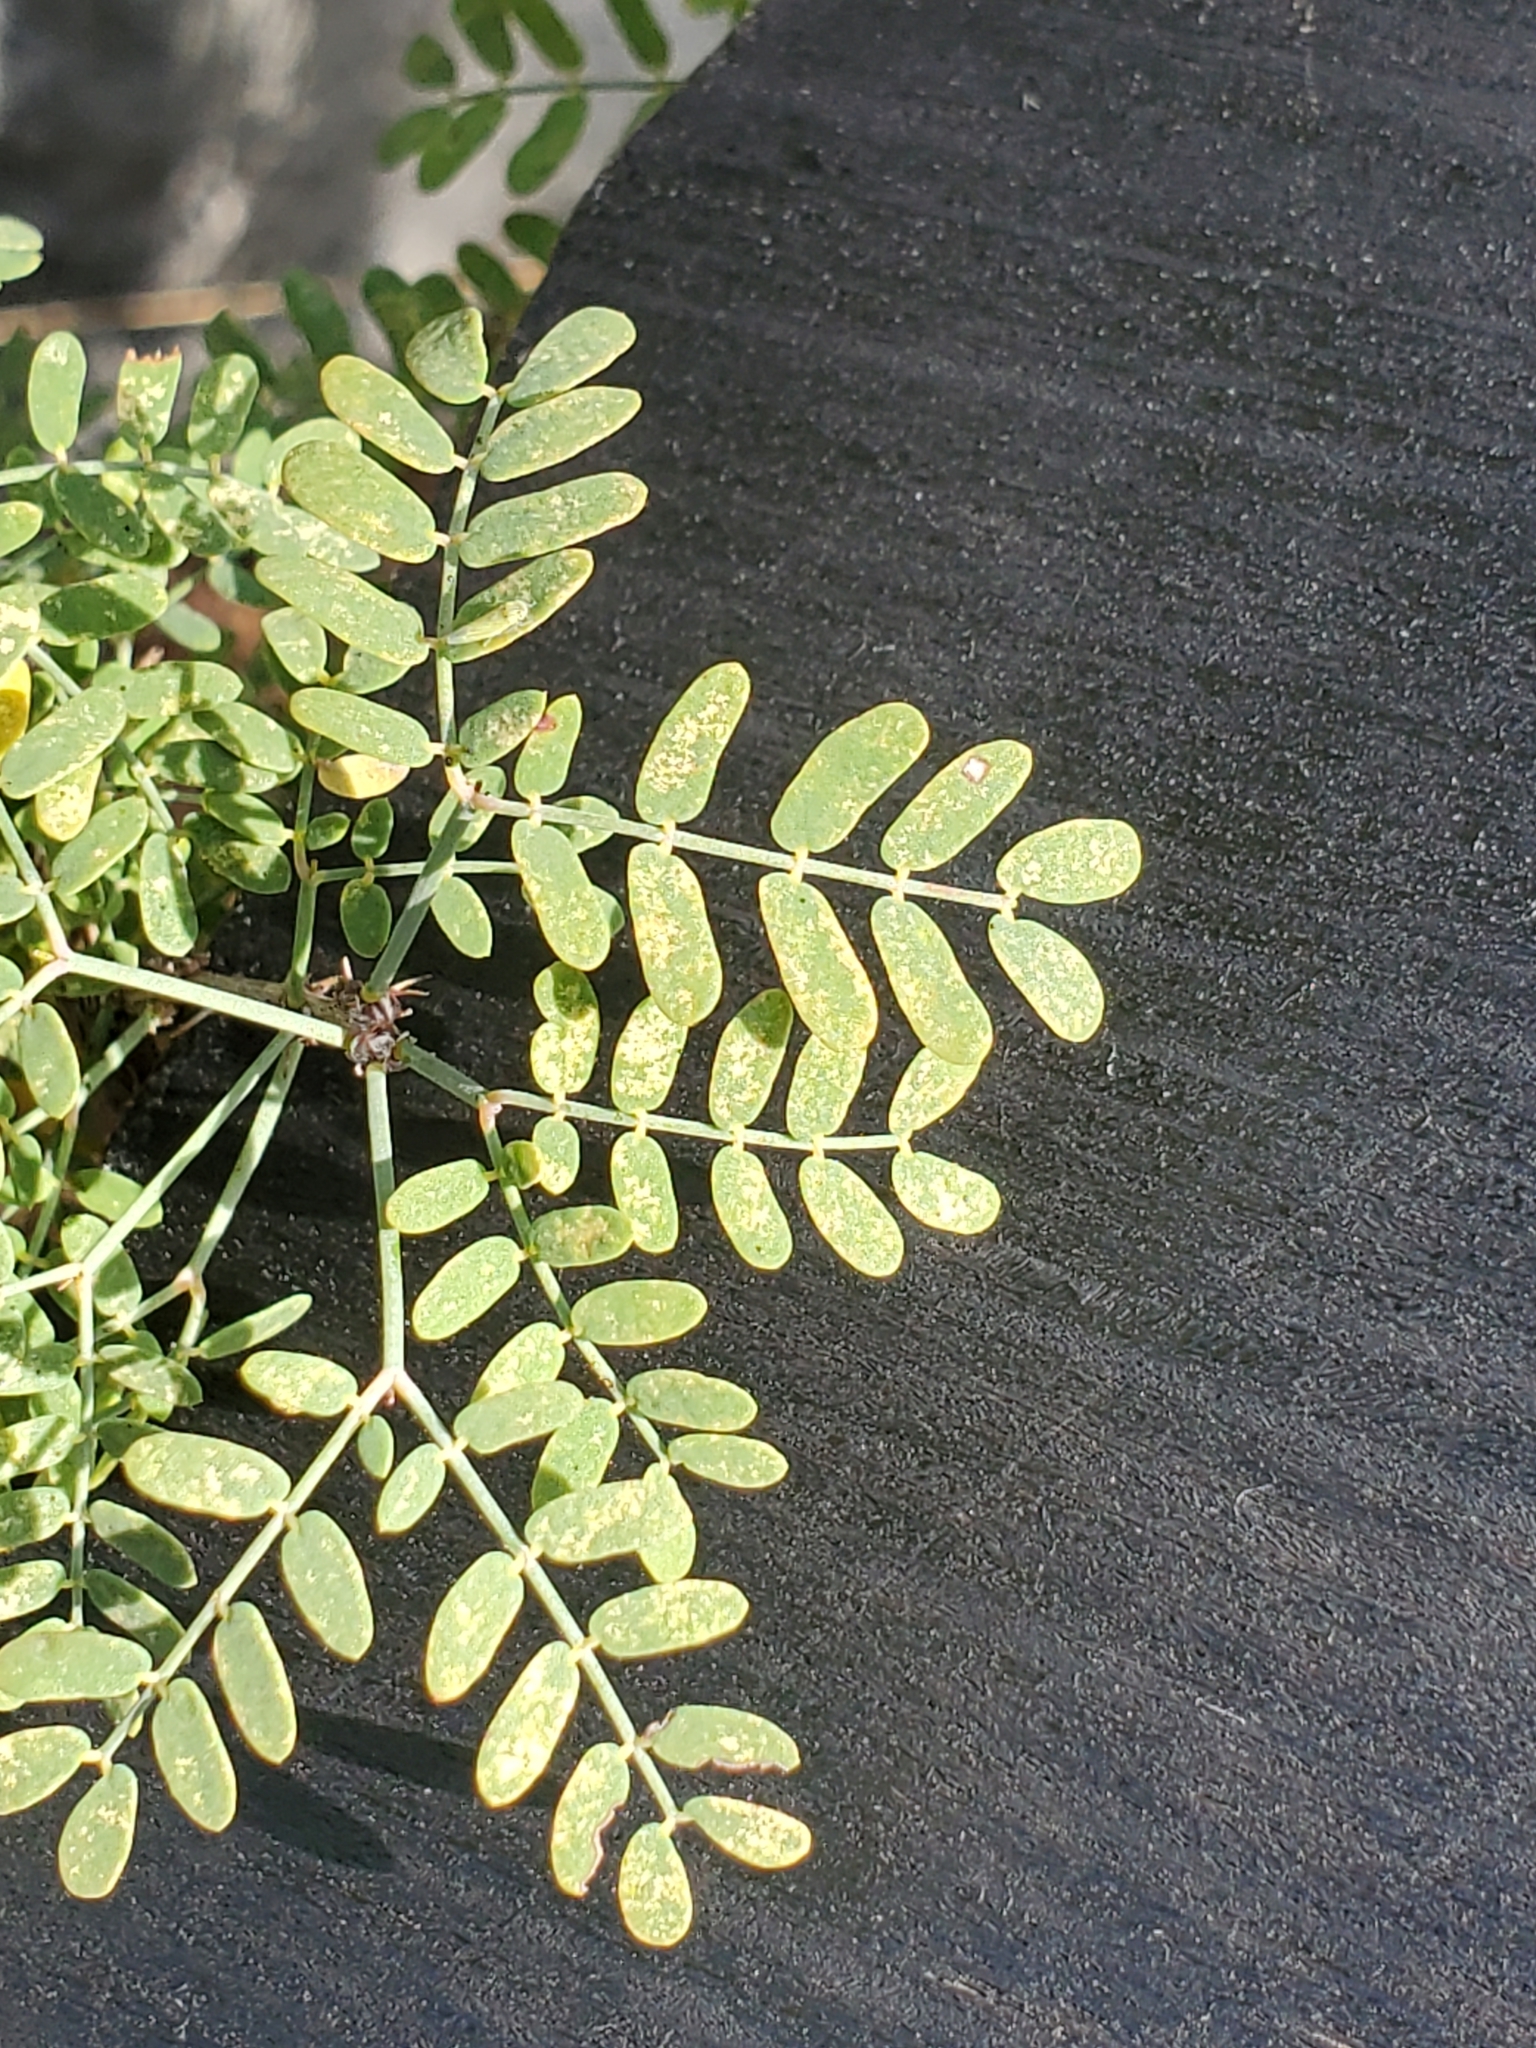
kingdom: Plantae
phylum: Tracheophyta
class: Magnoliopsida
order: Fabales
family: Fabaceae
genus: Mimosa
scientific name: Mimosa borealis
